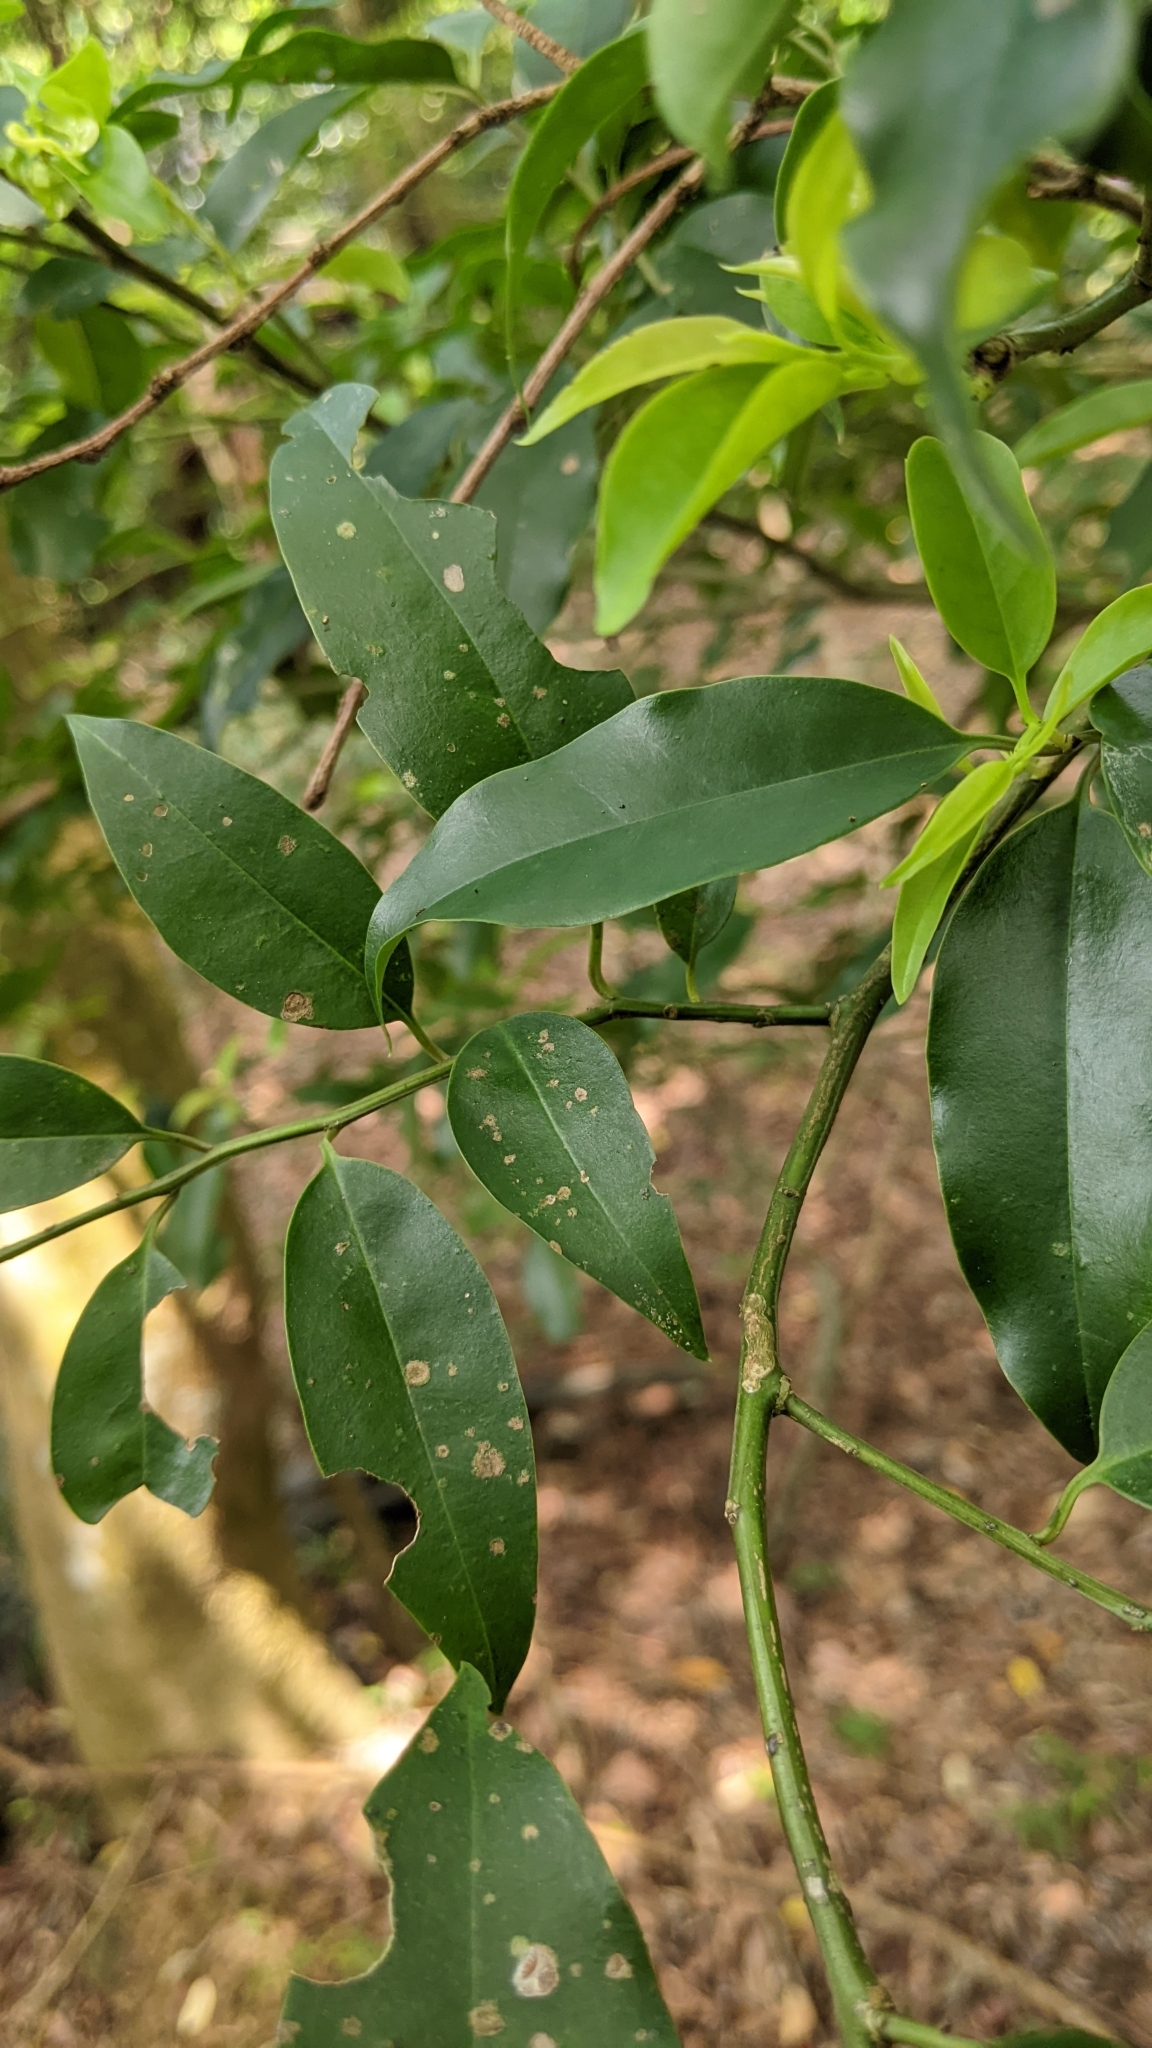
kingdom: Plantae
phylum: Tracheophyta
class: Magnoliopsida
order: Aquifoliales
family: Aquifoliaceae
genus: Ilex
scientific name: Ilex rotunda
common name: Kurogane holly
